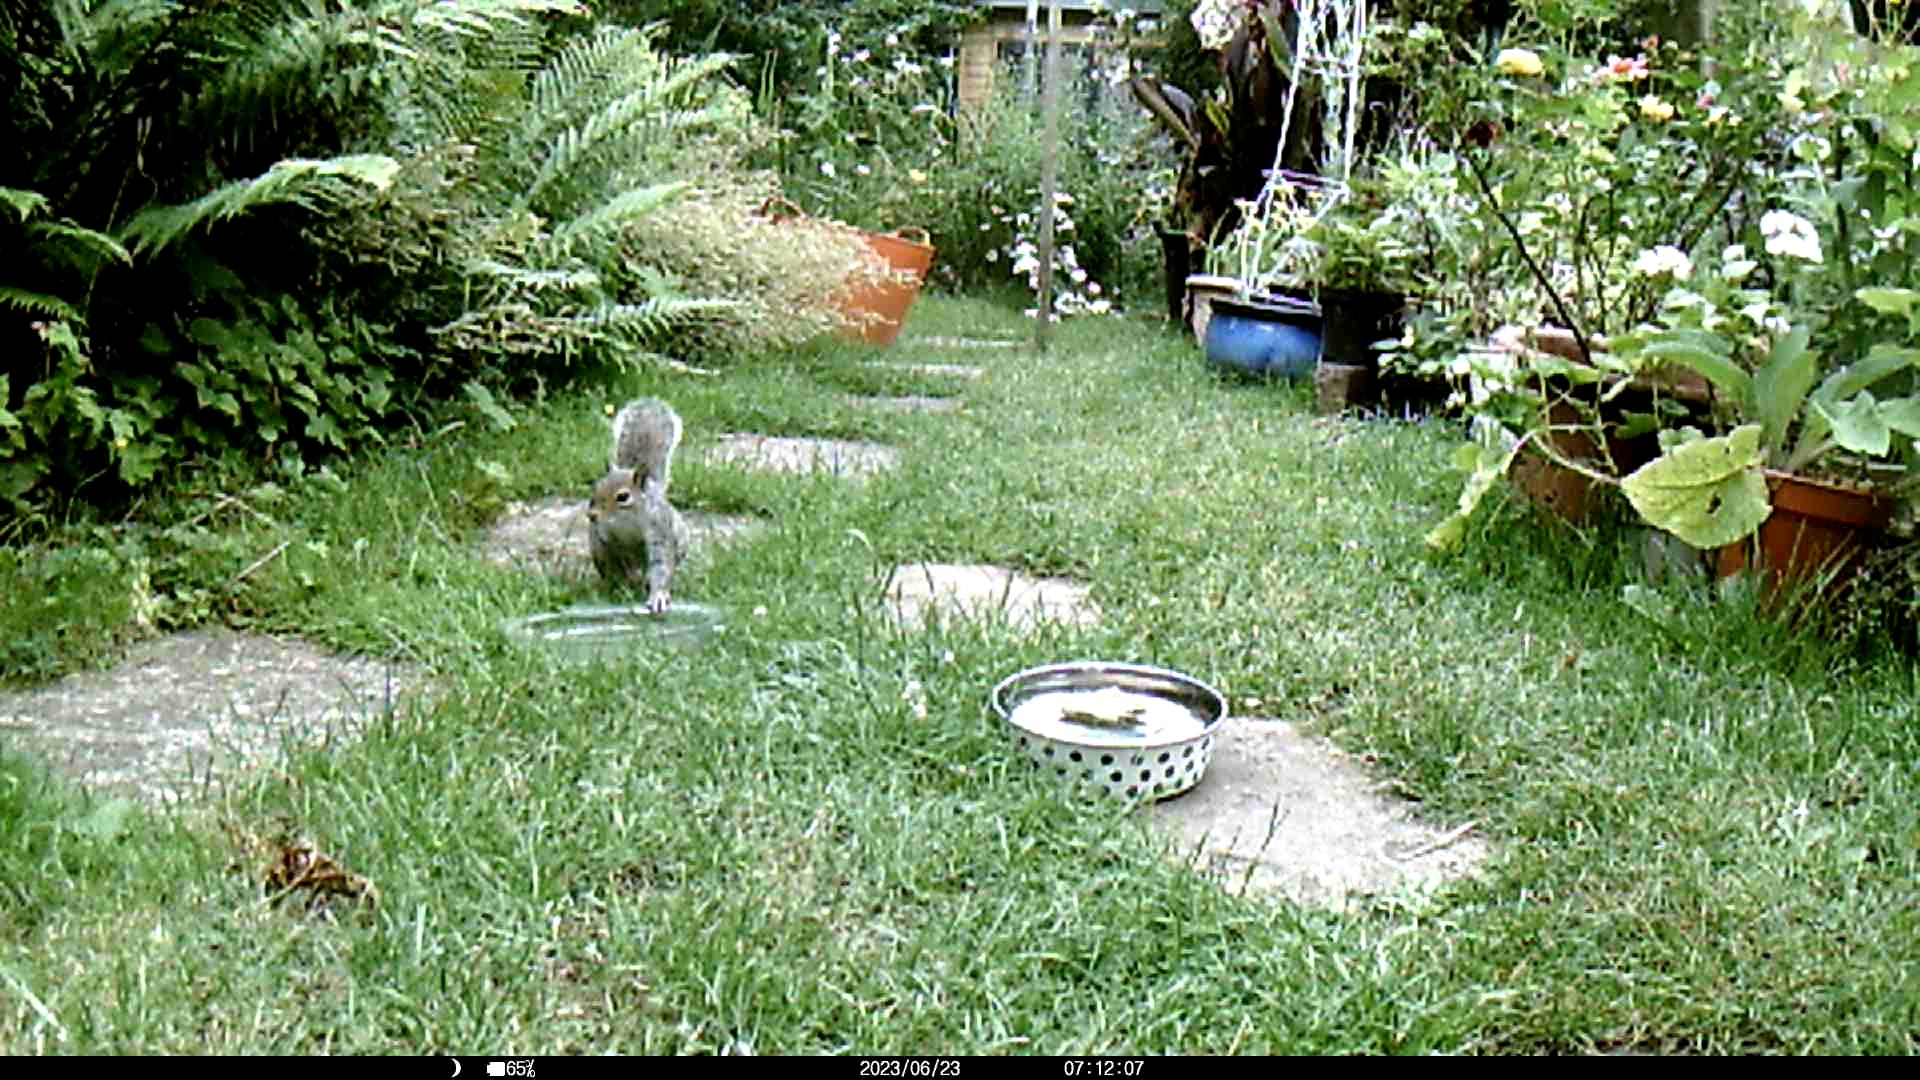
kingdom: Animalia
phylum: Chordata
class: Mammalia
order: Rodentia
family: Sciuridae
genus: Sciurus
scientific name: Sciurus carolinensis
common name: Eastern gray squirrel
